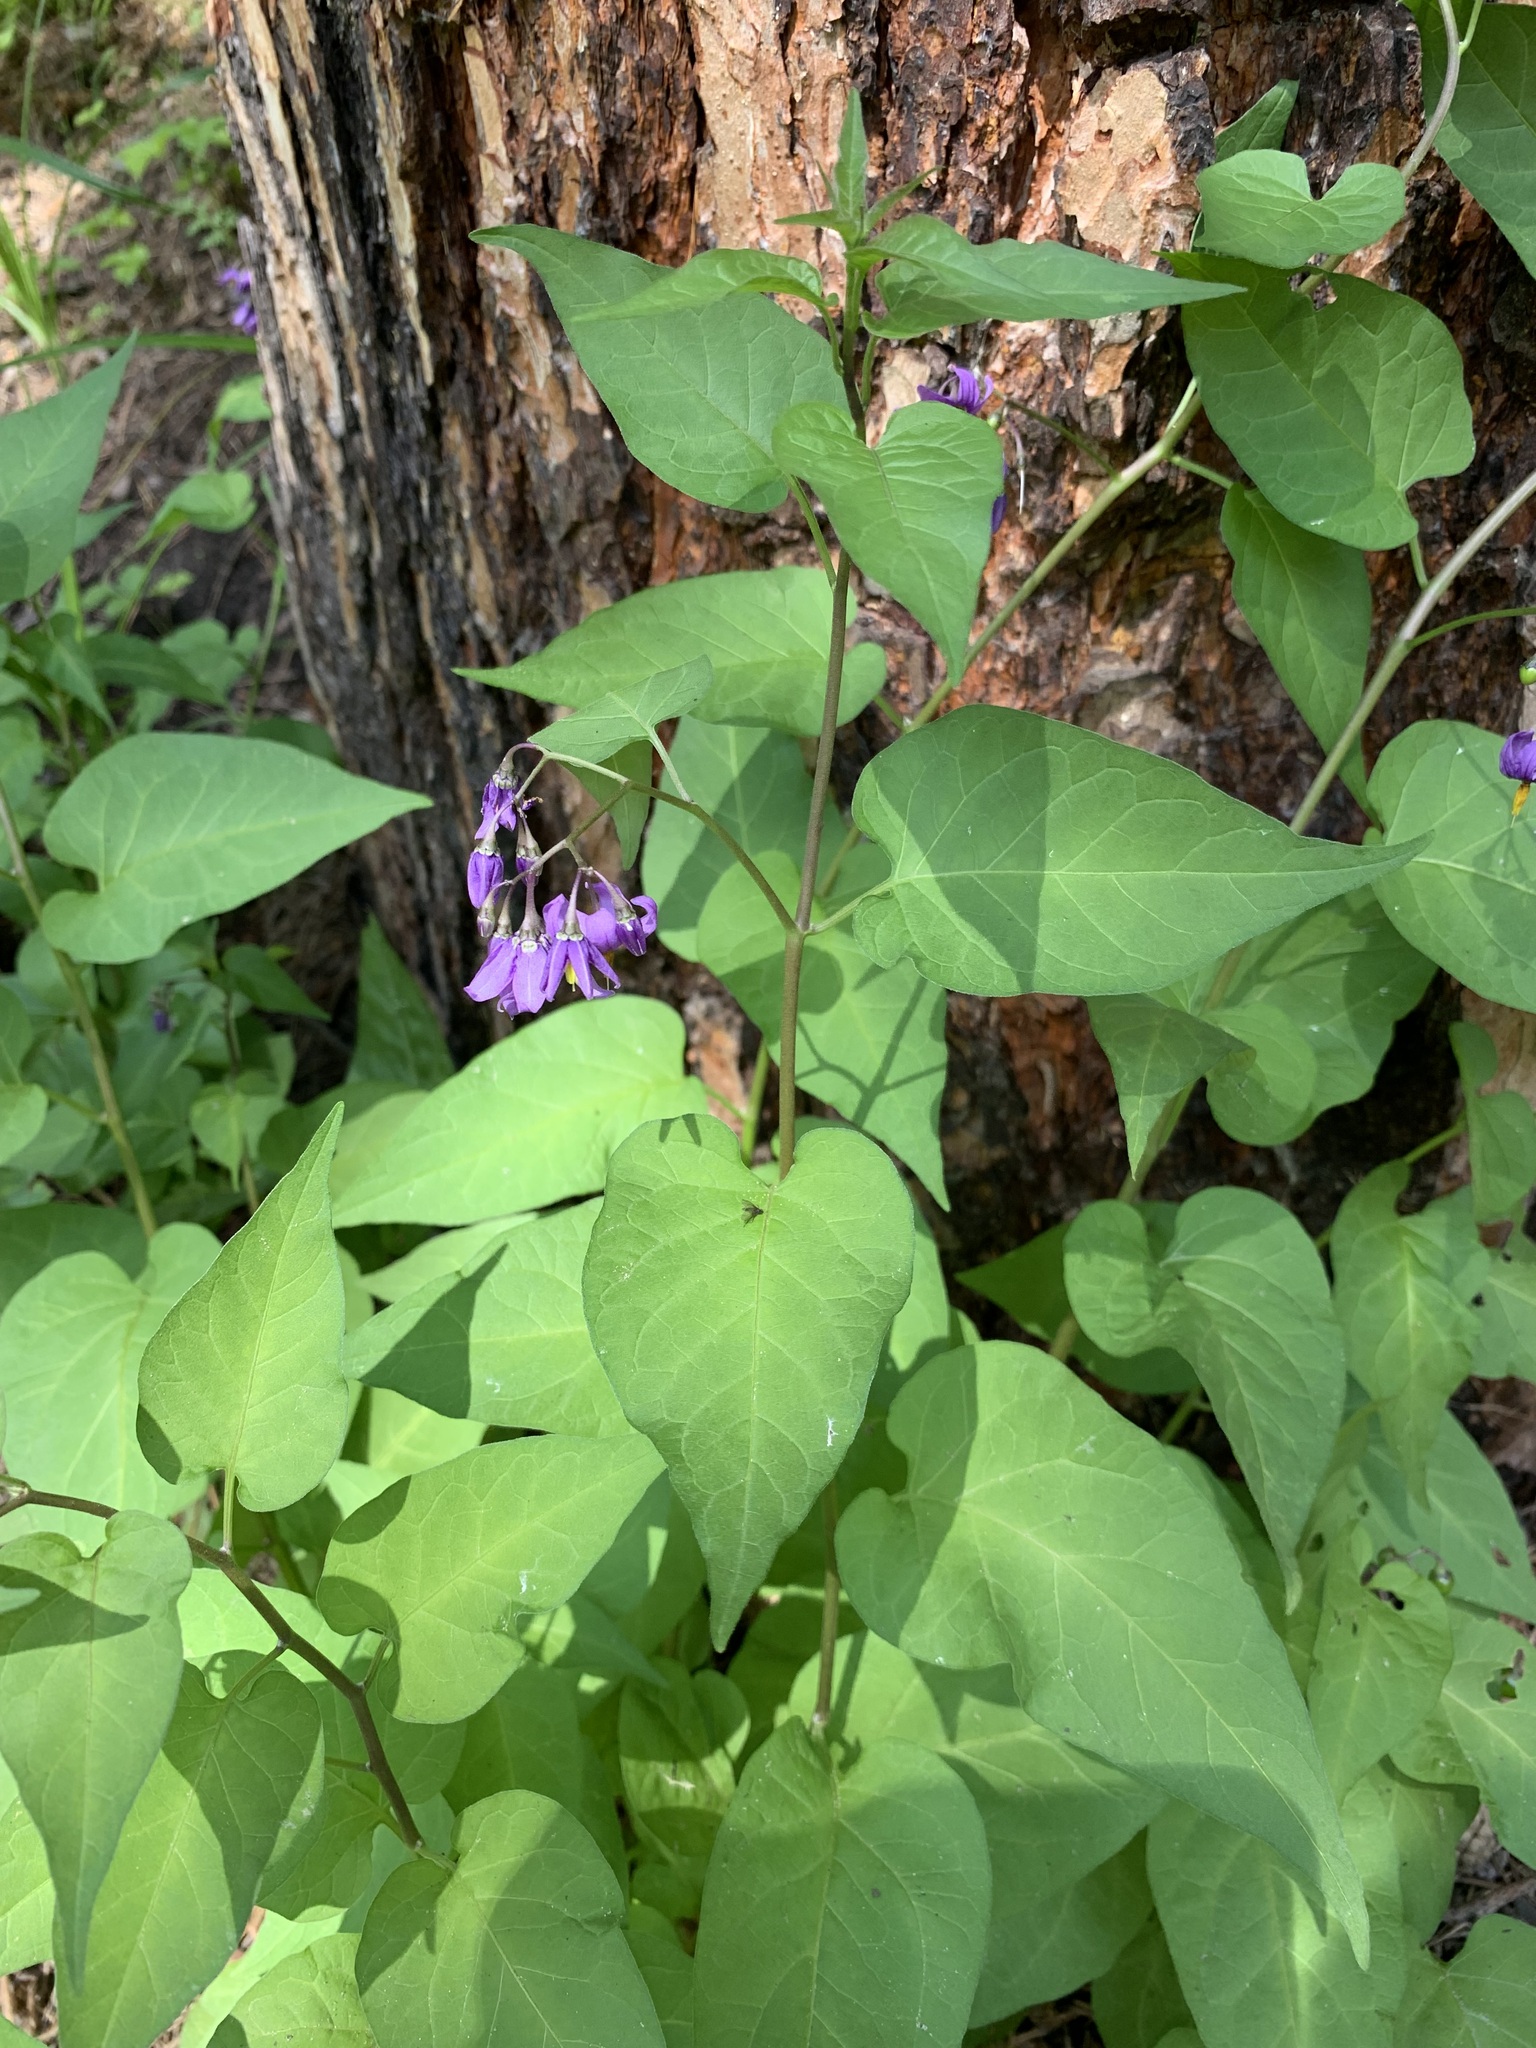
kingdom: Plantae
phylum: Tracheophyta
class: Magnoliopsida
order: Solanales
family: Solanaceae
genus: Solanum
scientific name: Solanum dulcamara
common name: Climbing nightshade
